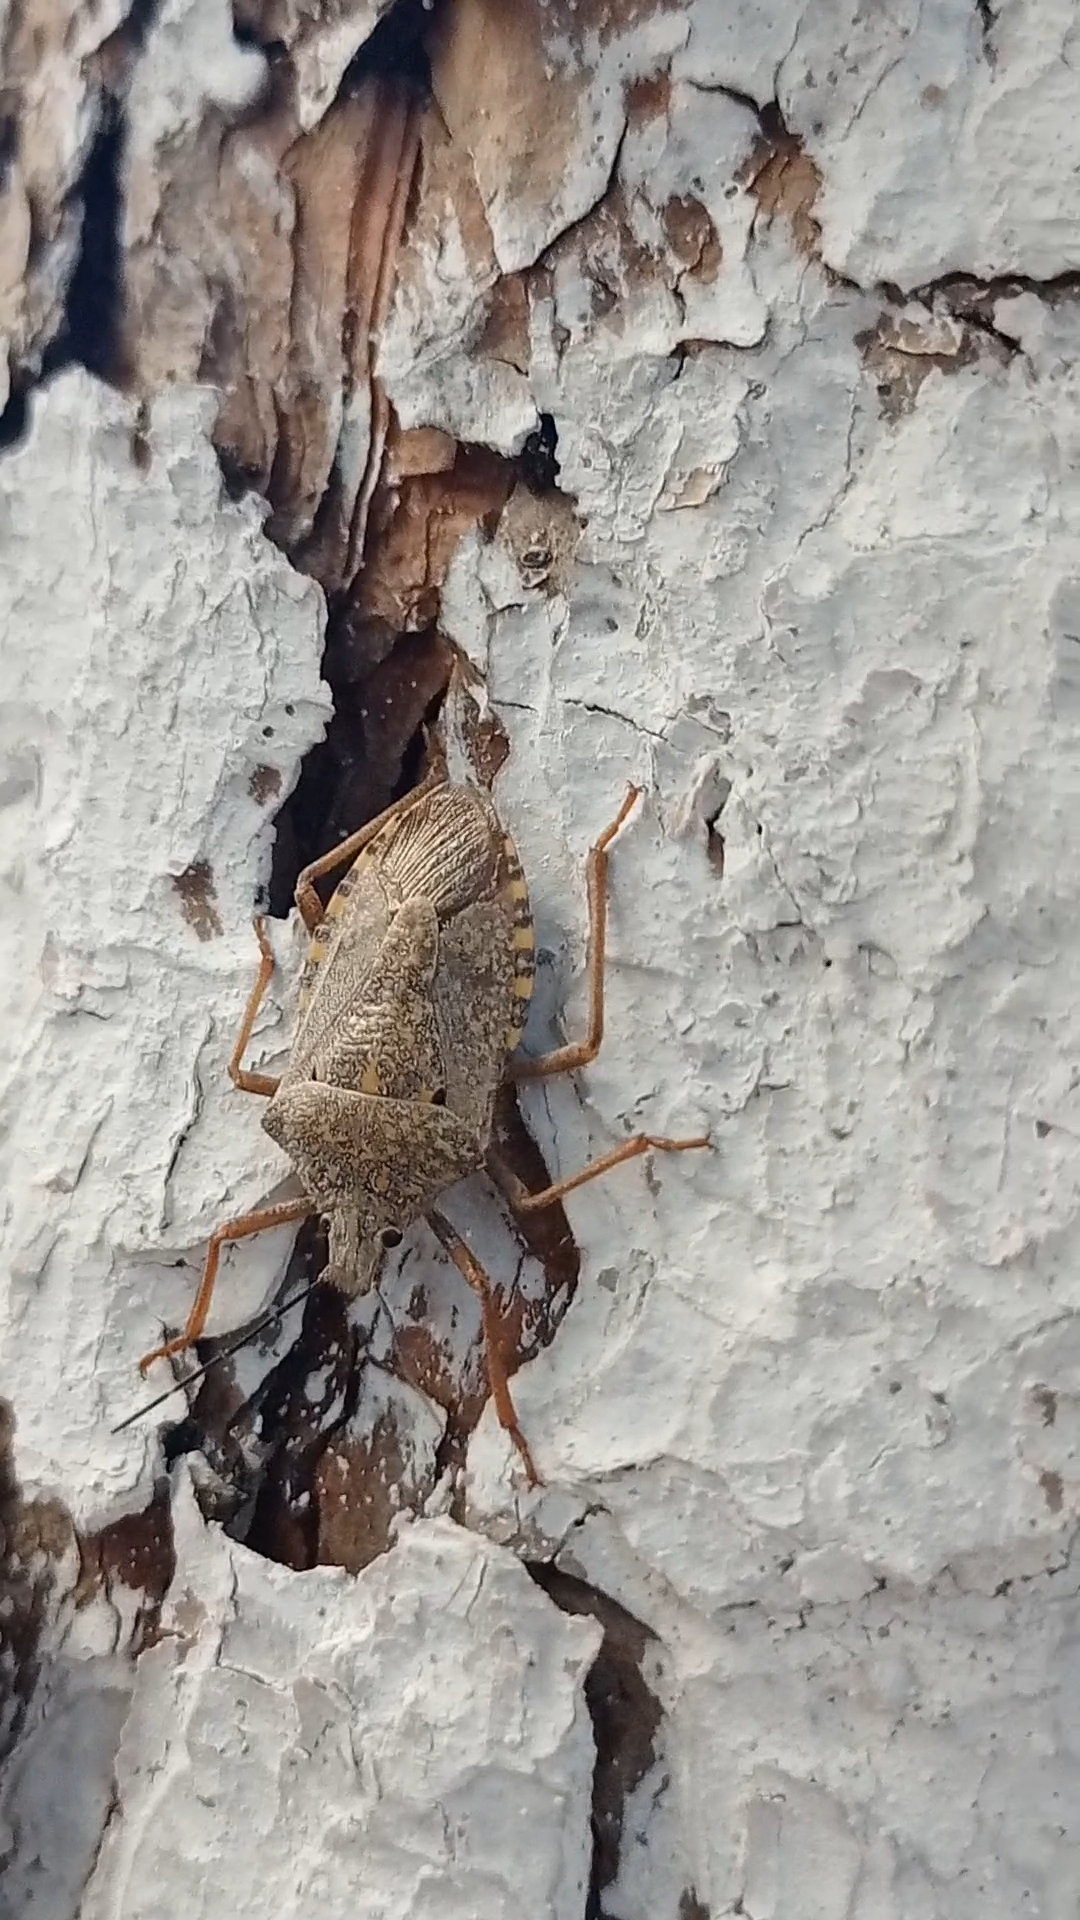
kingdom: Animalia
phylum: Arthropoda
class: Insecta
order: Hemiptera
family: Pentatomidae
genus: Apodiphus
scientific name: Apodiphus
